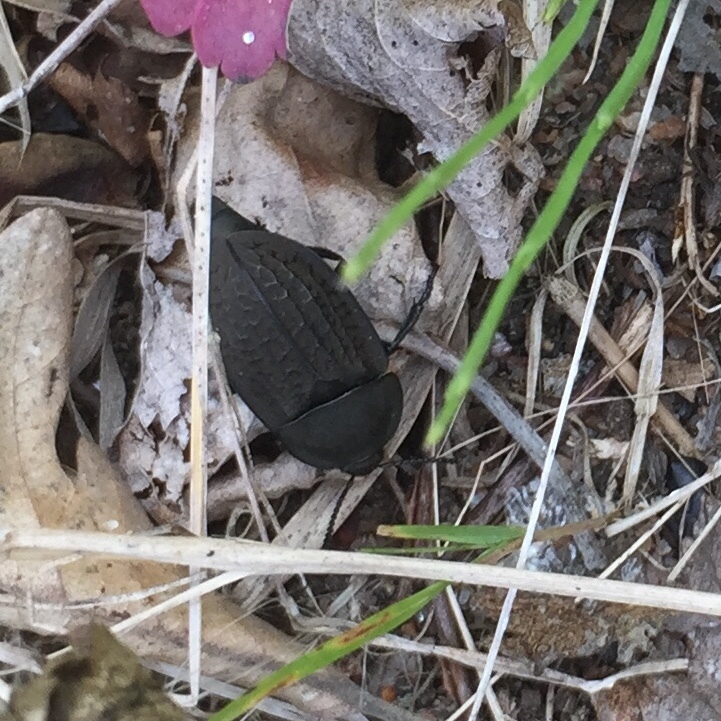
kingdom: Animalia
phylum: Arthropoda
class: Insecta
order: Coleoptera
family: Staphylinidae
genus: Heterosilpha
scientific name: Heterosilpha ramosa
